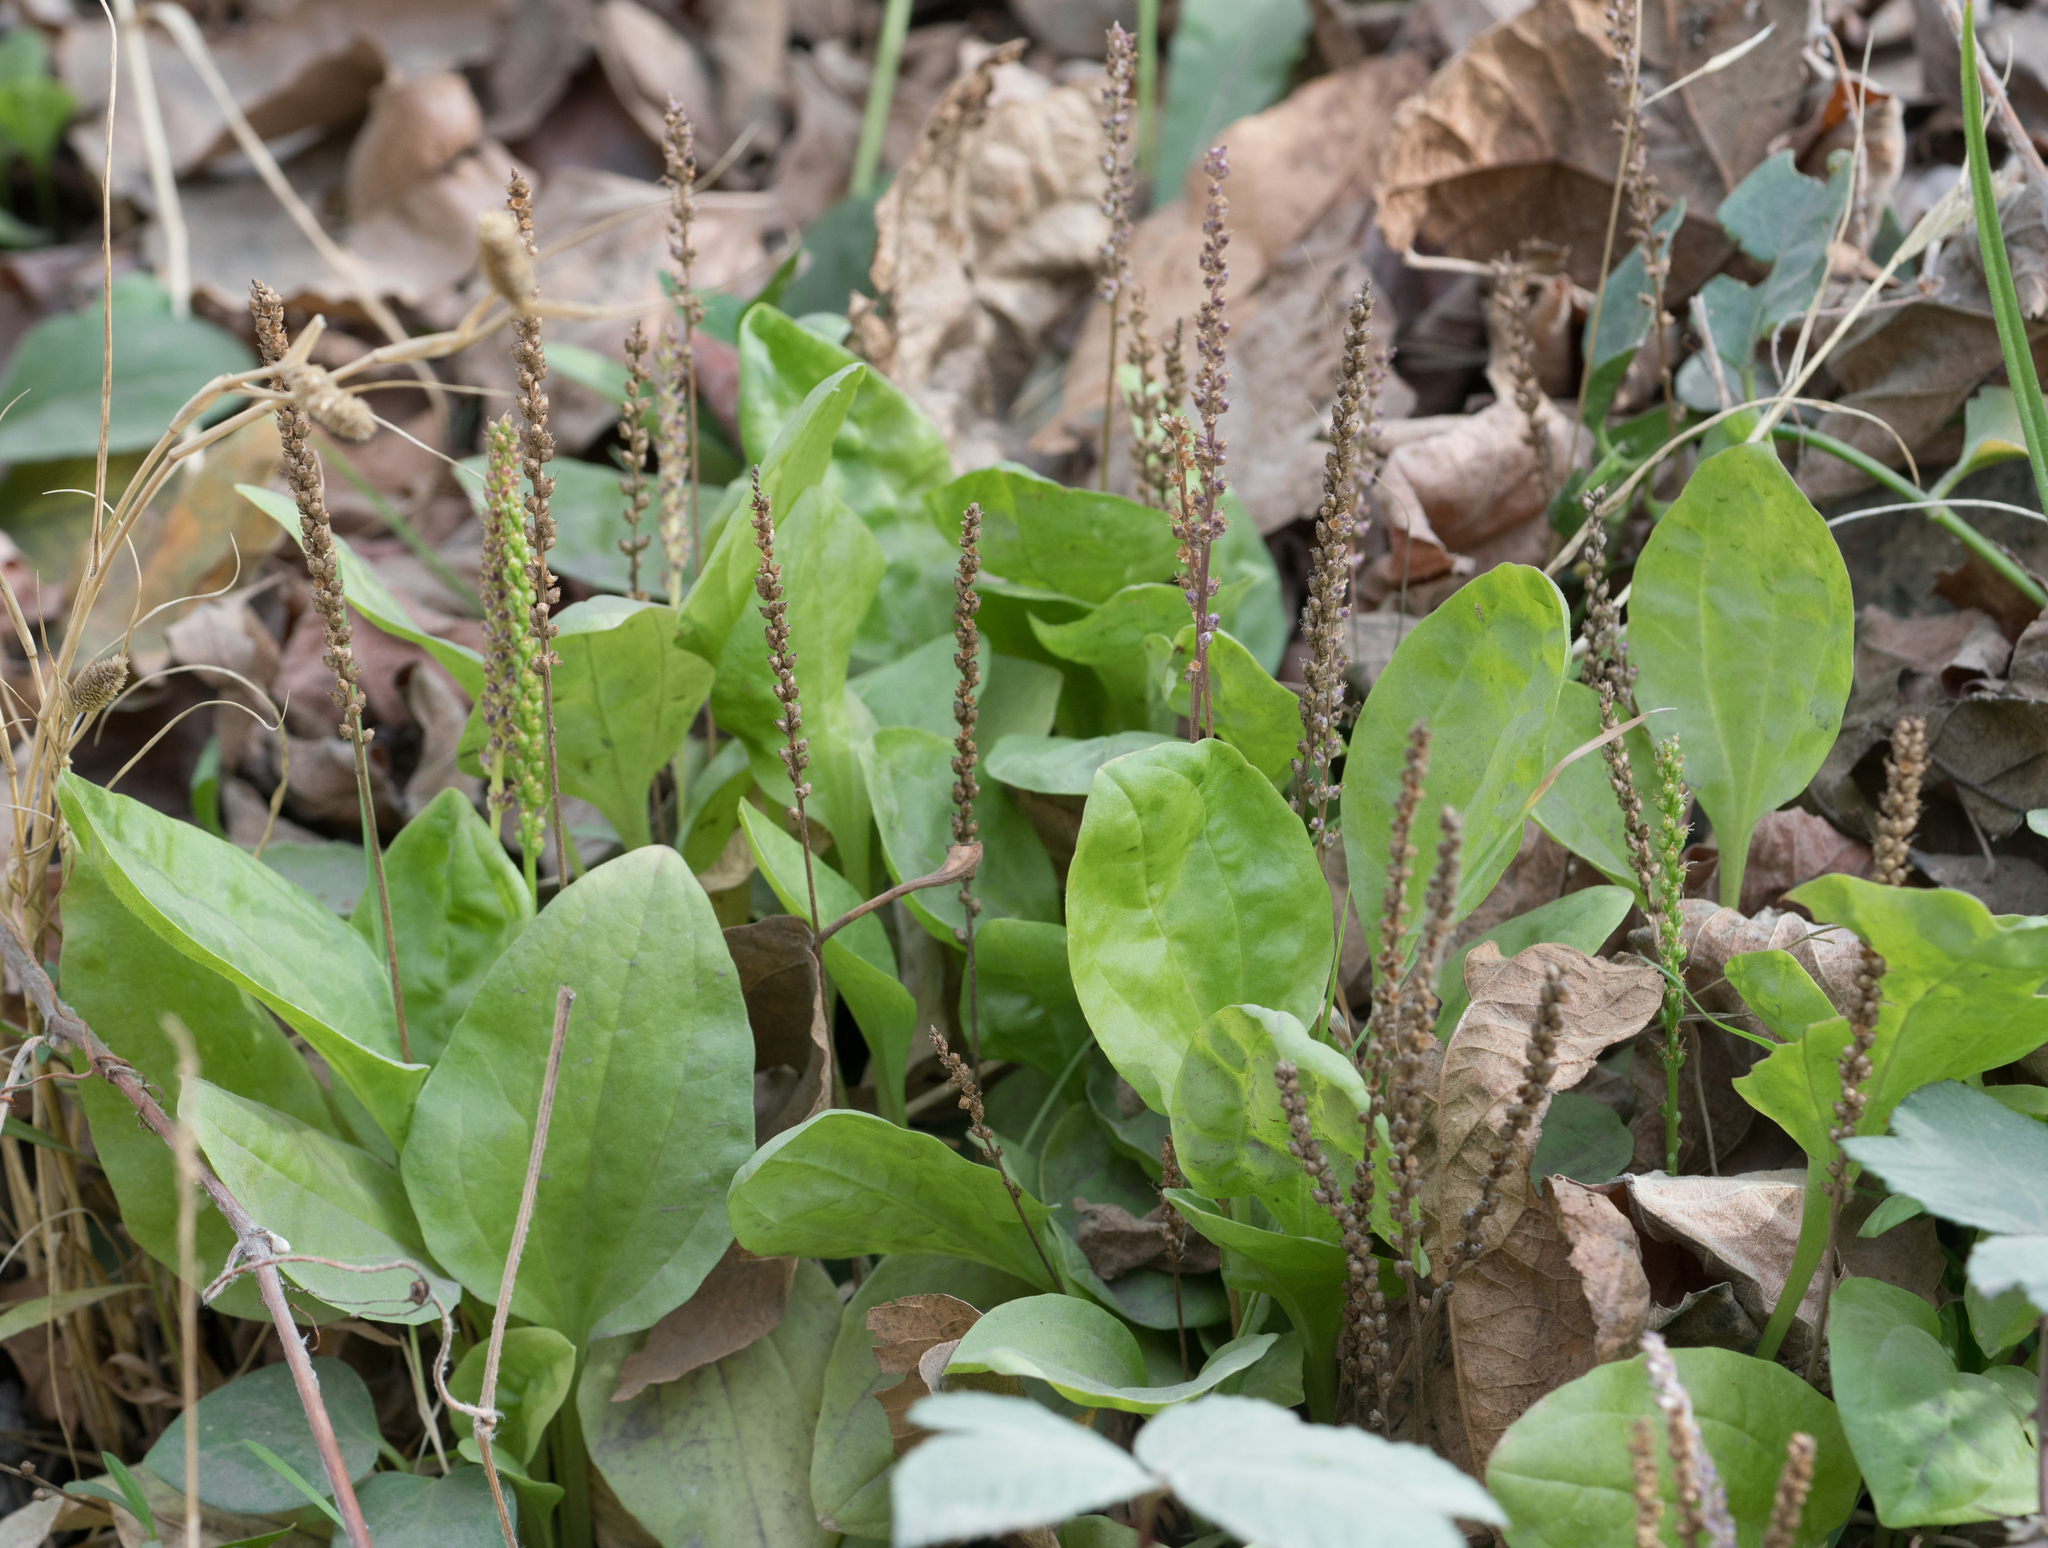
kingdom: Plantae
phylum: Tracheophyta
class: Magnoliopsida
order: Lamiales
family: Plantaginaceae
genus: Plantago
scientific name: Plantago major
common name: Common plantain
